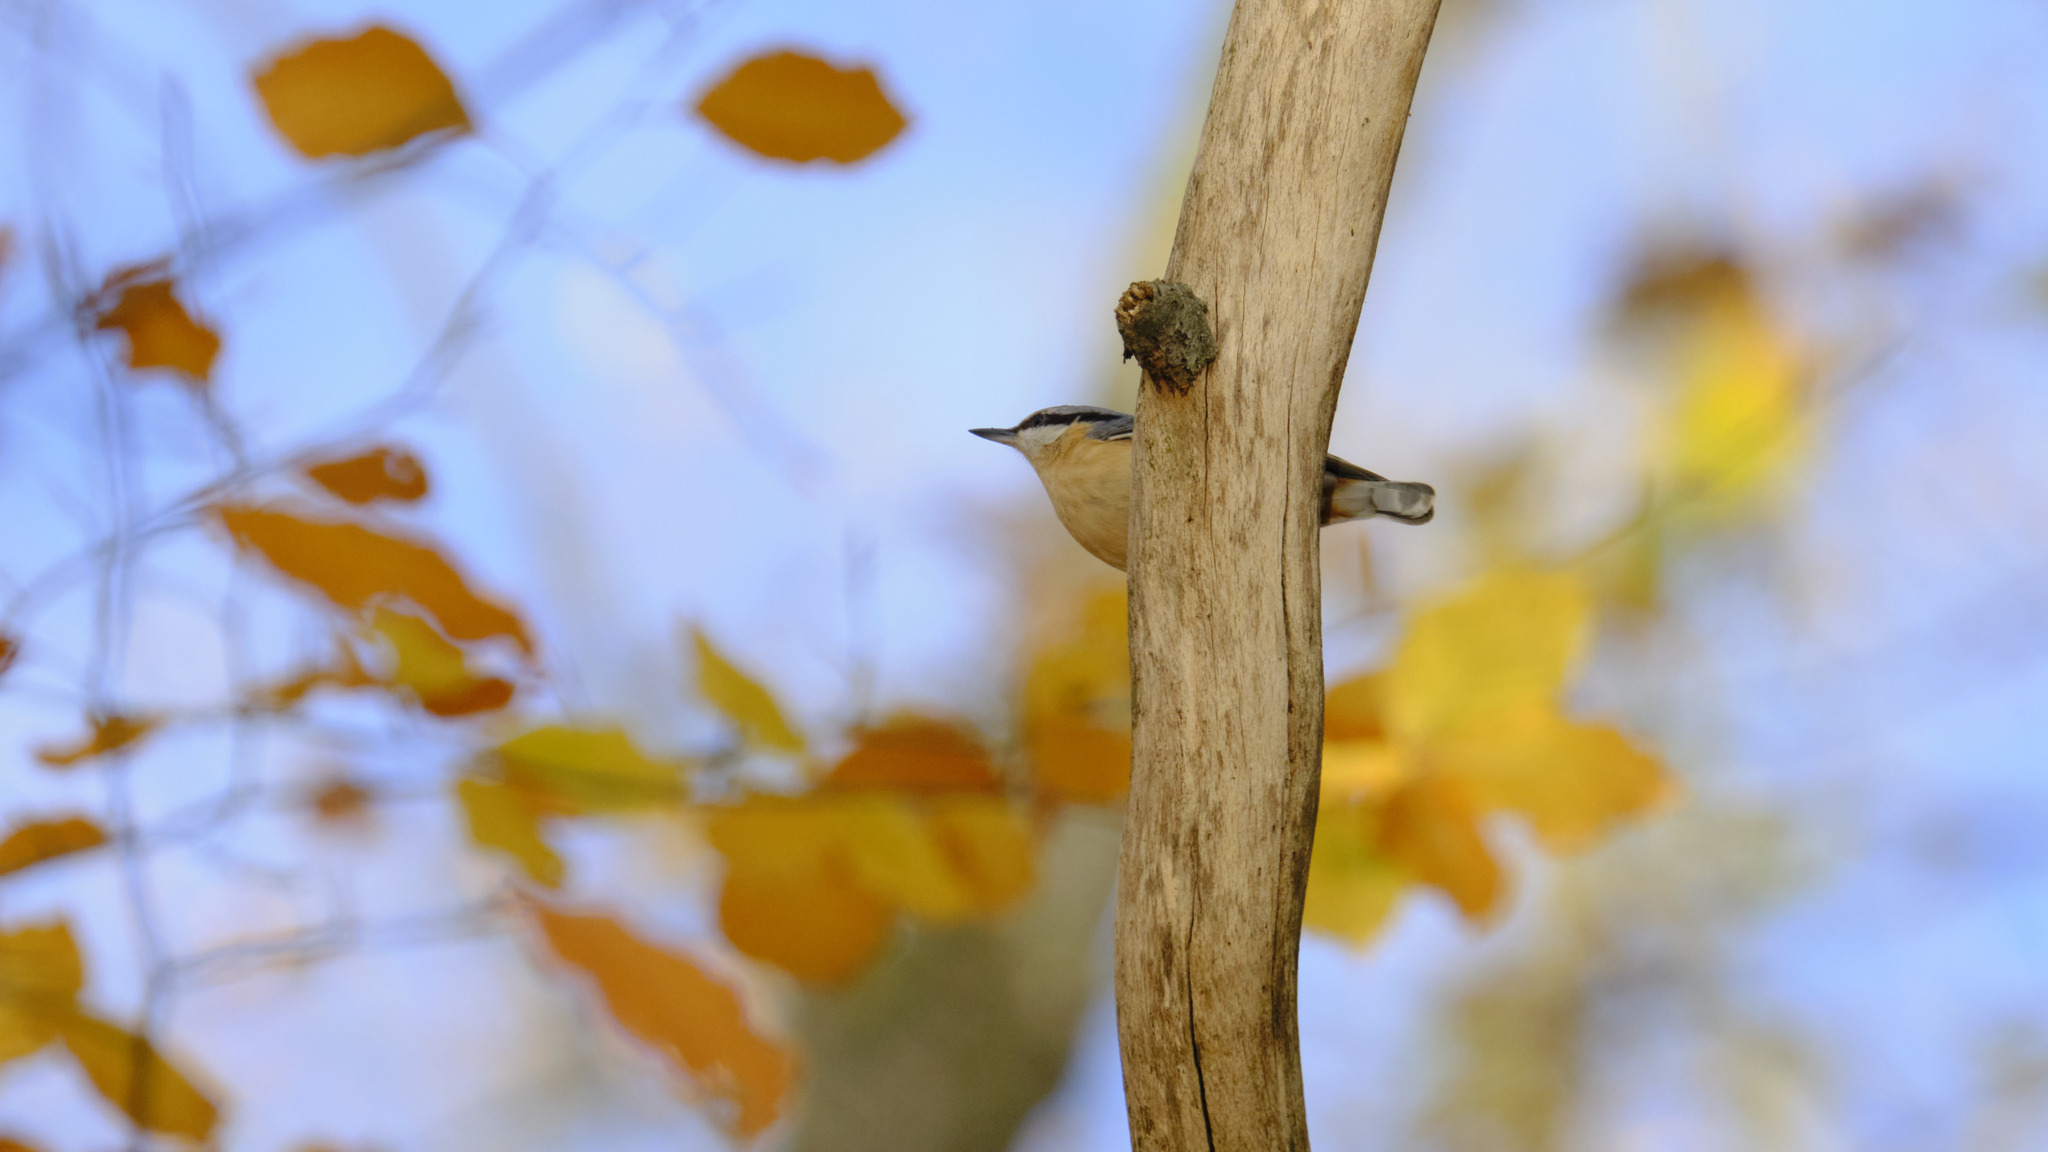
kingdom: Animalia
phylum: Chordata
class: Aves
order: Passeriformes
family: Sittidae
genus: Sitta
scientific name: Sitta europaea
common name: Eurasian nuthatch
